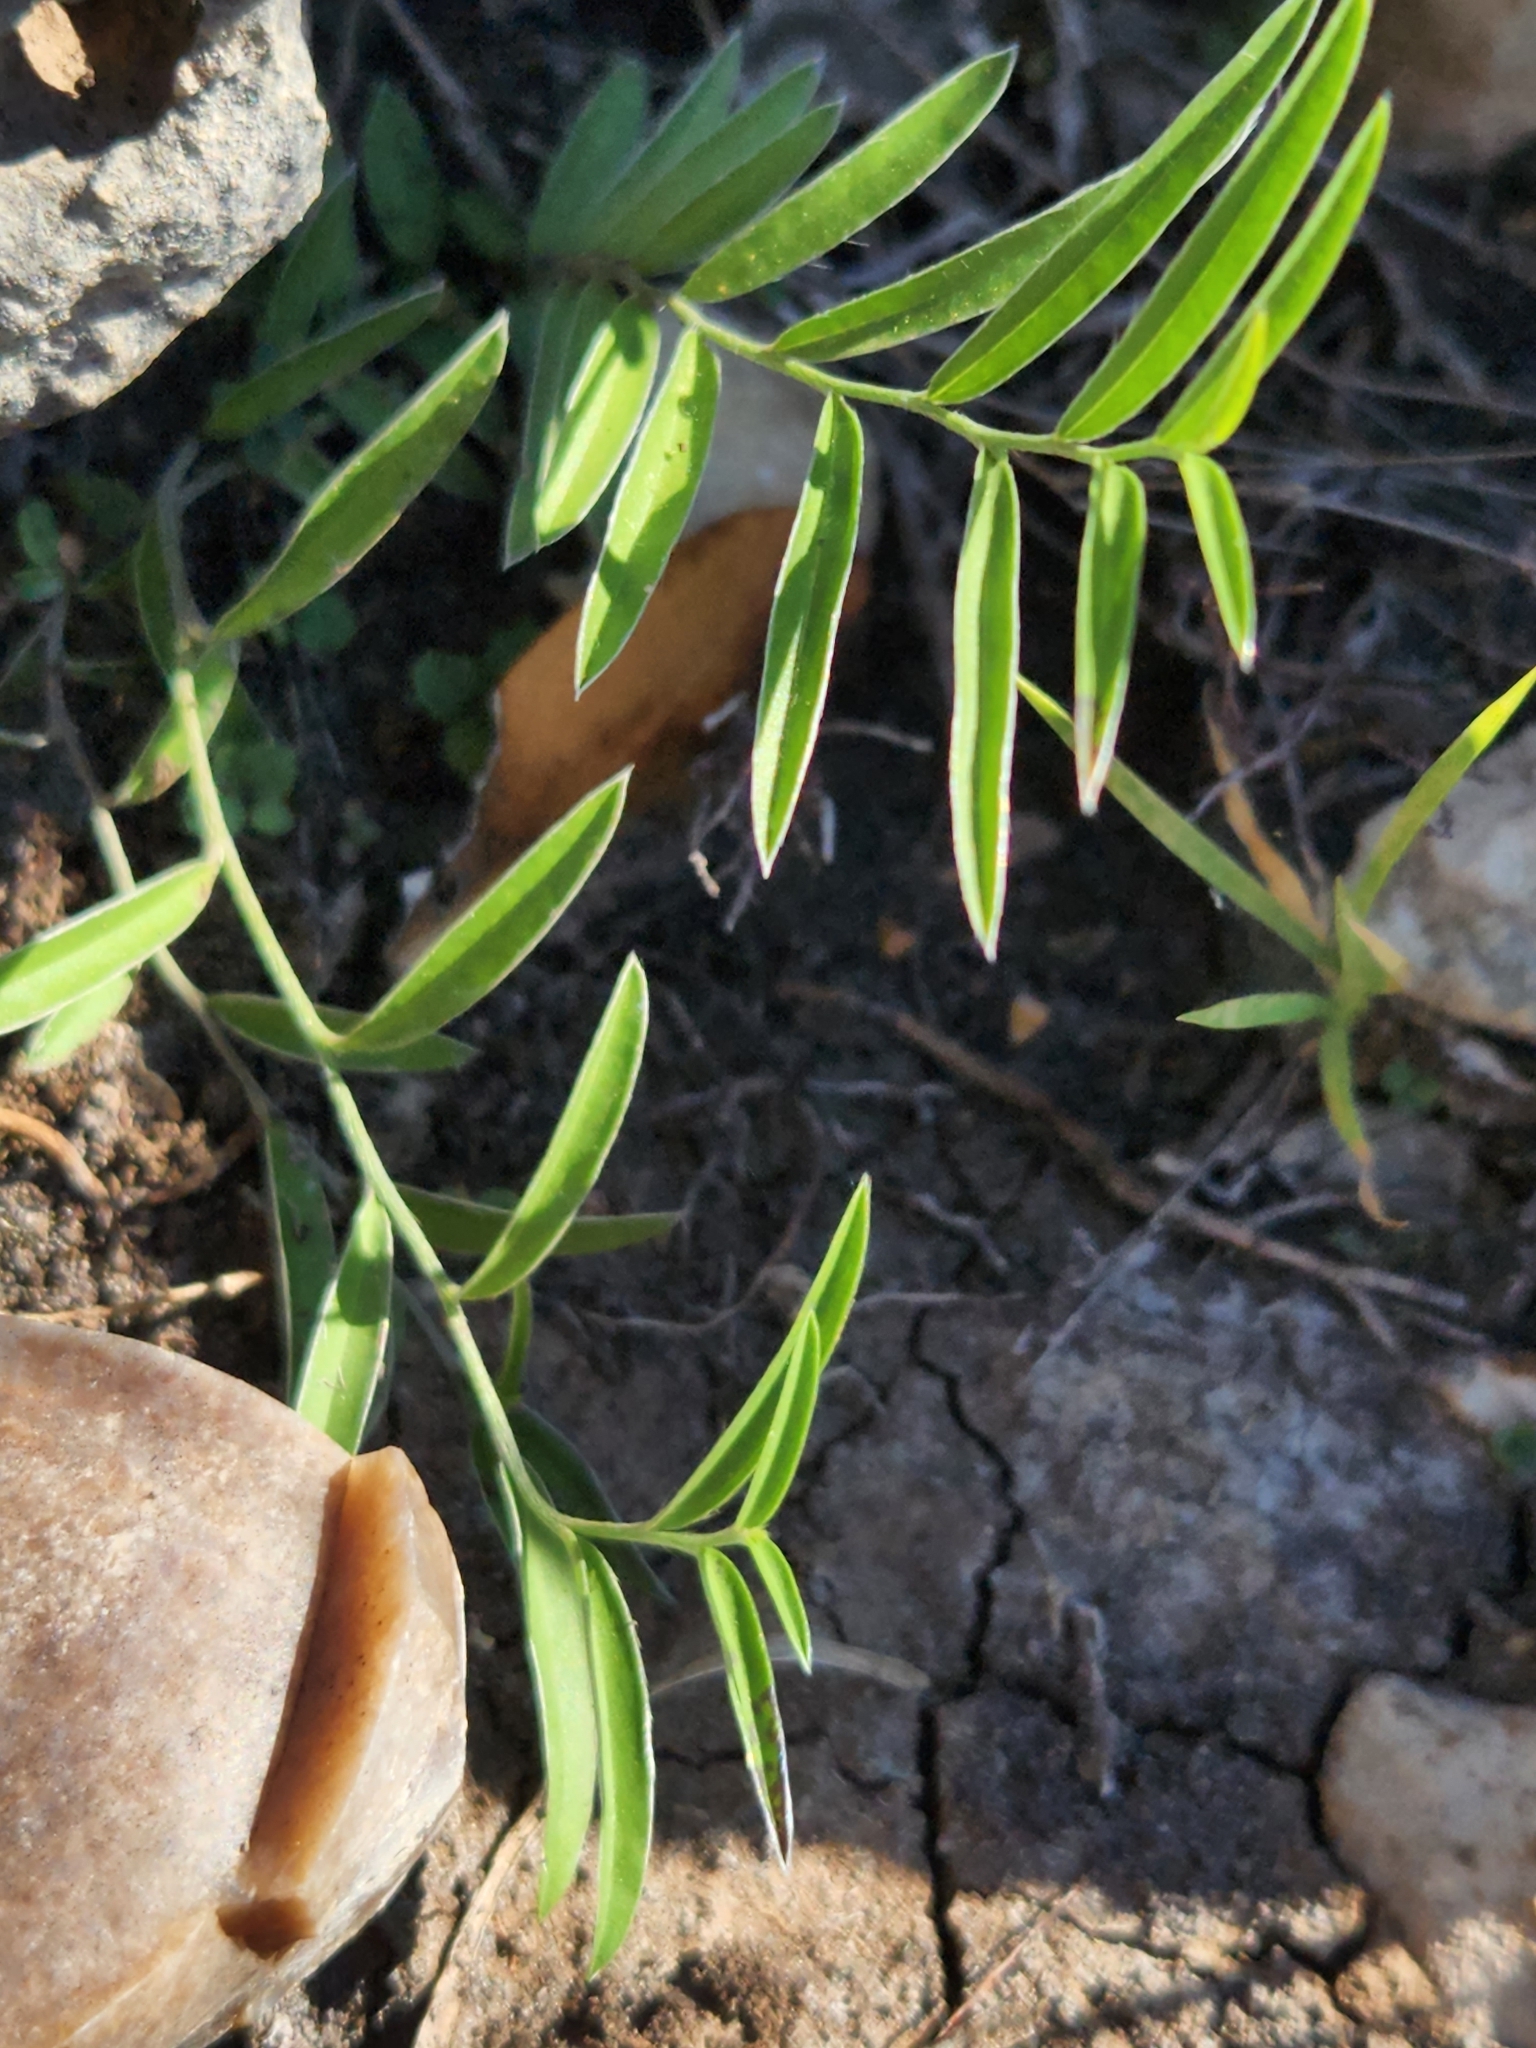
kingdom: Plantae
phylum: Tracheophyta
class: Magnoliopsida
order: Solanales
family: Convolvulaceae
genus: Evolvulus
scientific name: Evolvulus sericeus
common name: Blue dots
